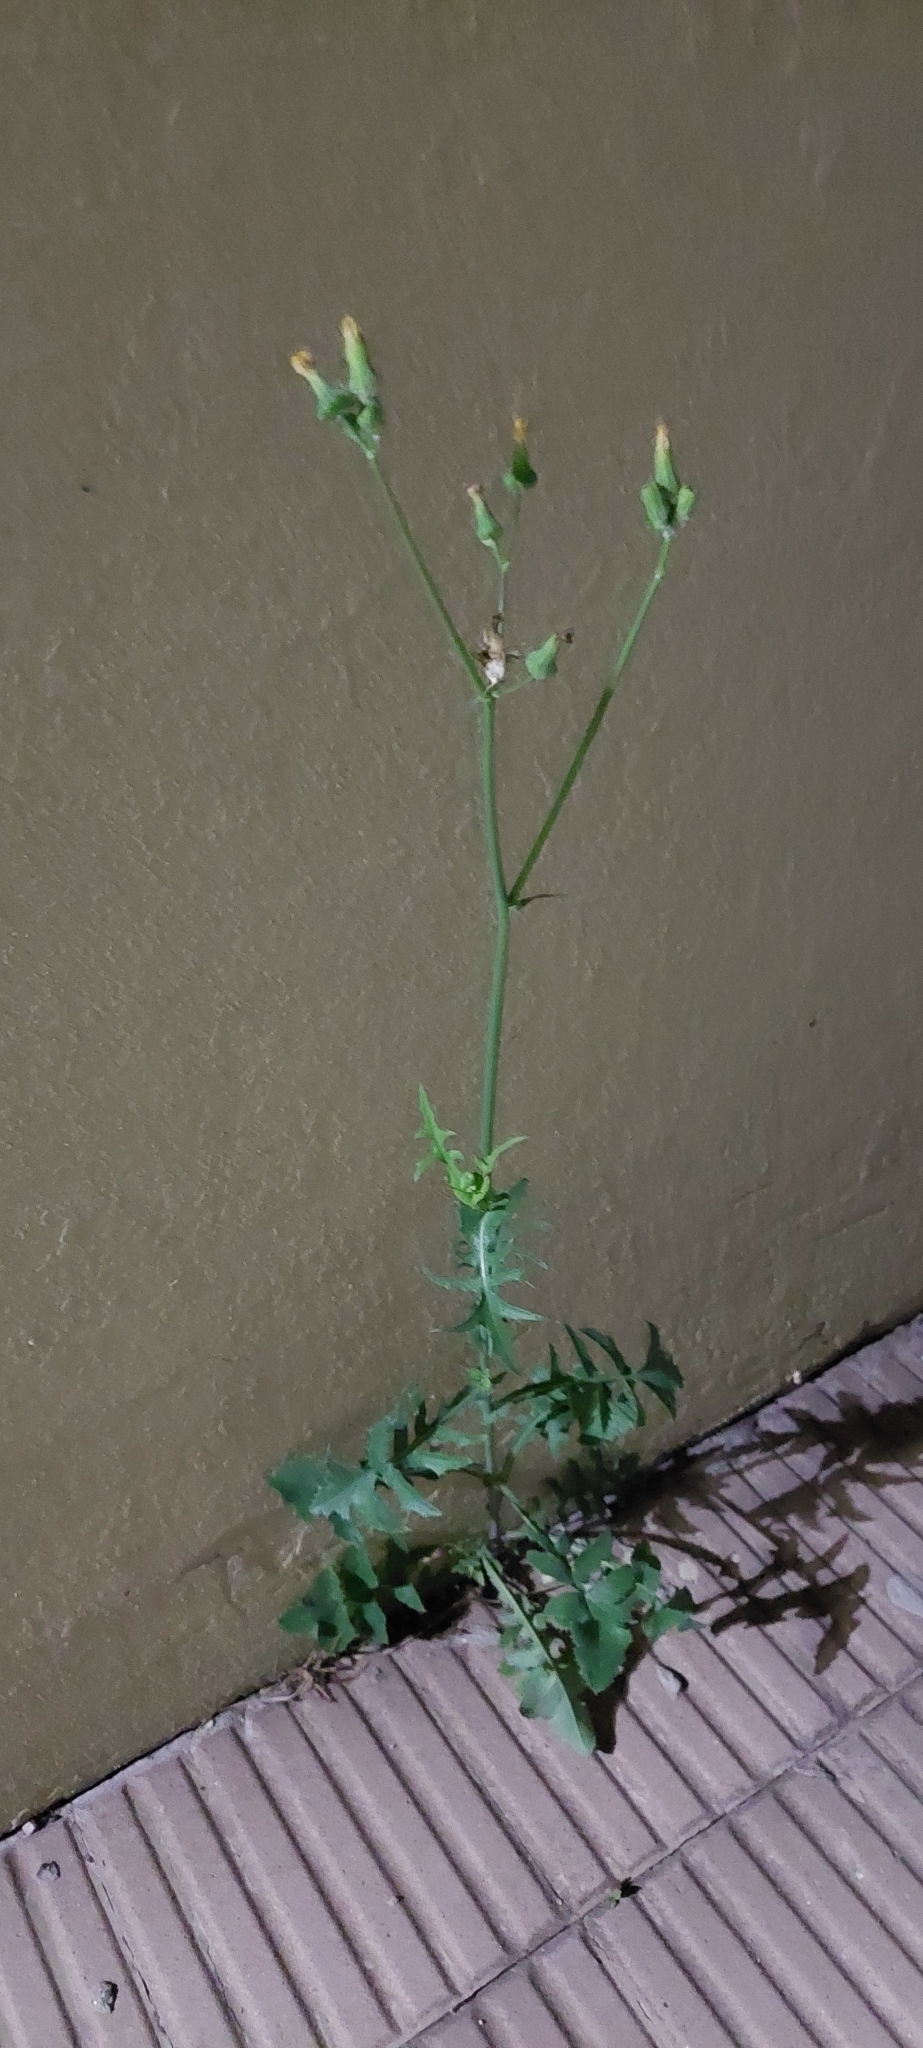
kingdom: Plantae
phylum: Tracheophyta
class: Magnoliopsida
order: Asterales
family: Asteraceae
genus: Sonchus
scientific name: Sonchus oleraceus
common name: Common sowthistle
